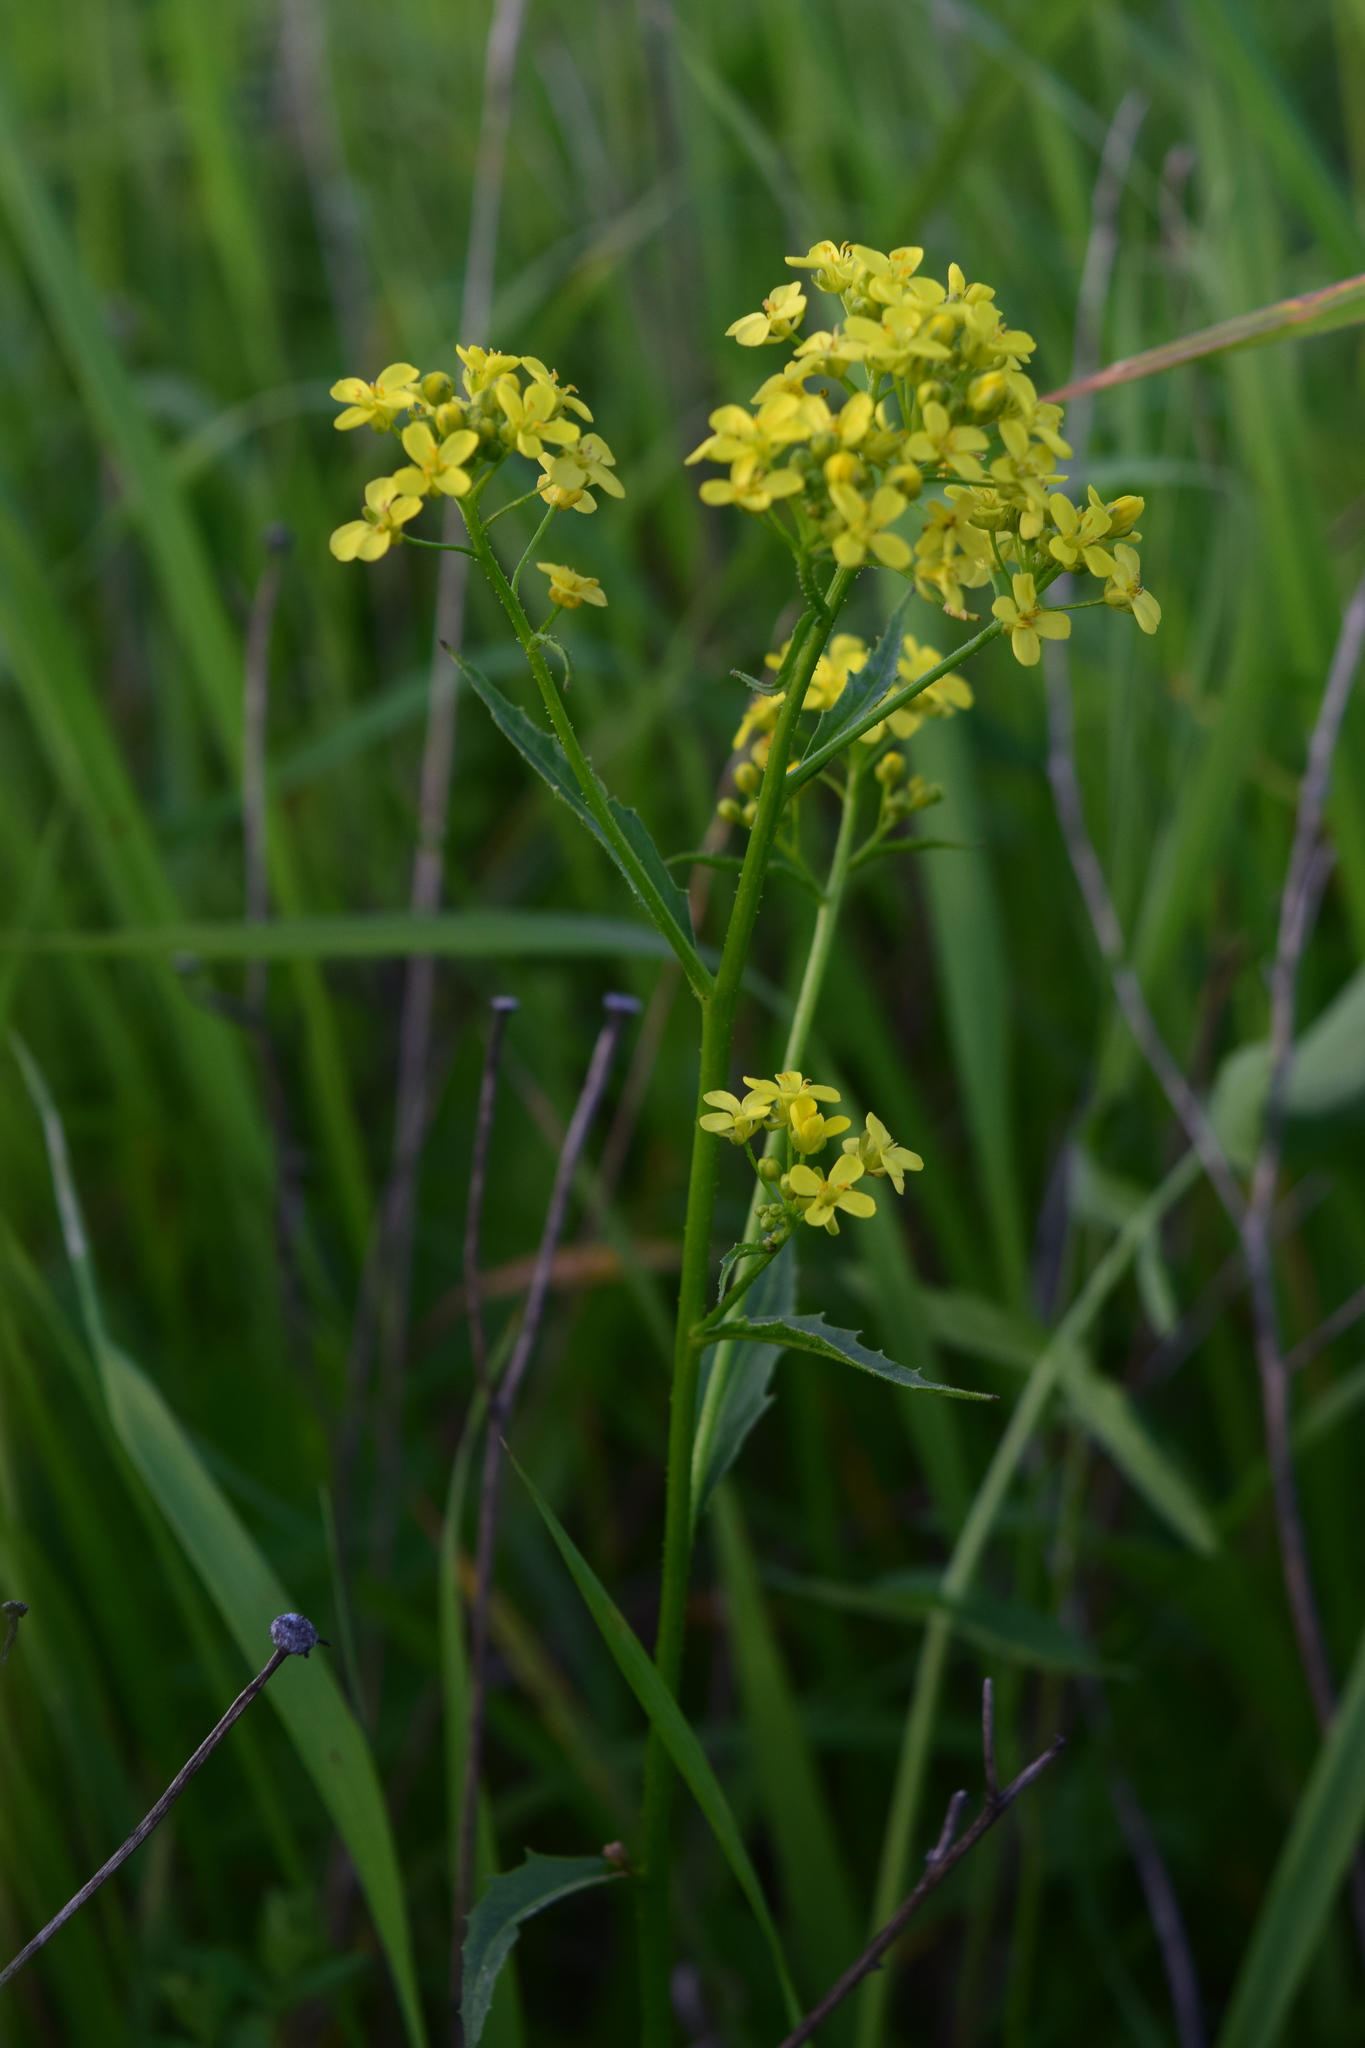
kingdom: Plantae
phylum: Tracheophyta
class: Magnoliopsida
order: Brassicales
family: Brassicaceae
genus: Bunias
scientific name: Bunias orientalis
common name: Warty-cabbage
